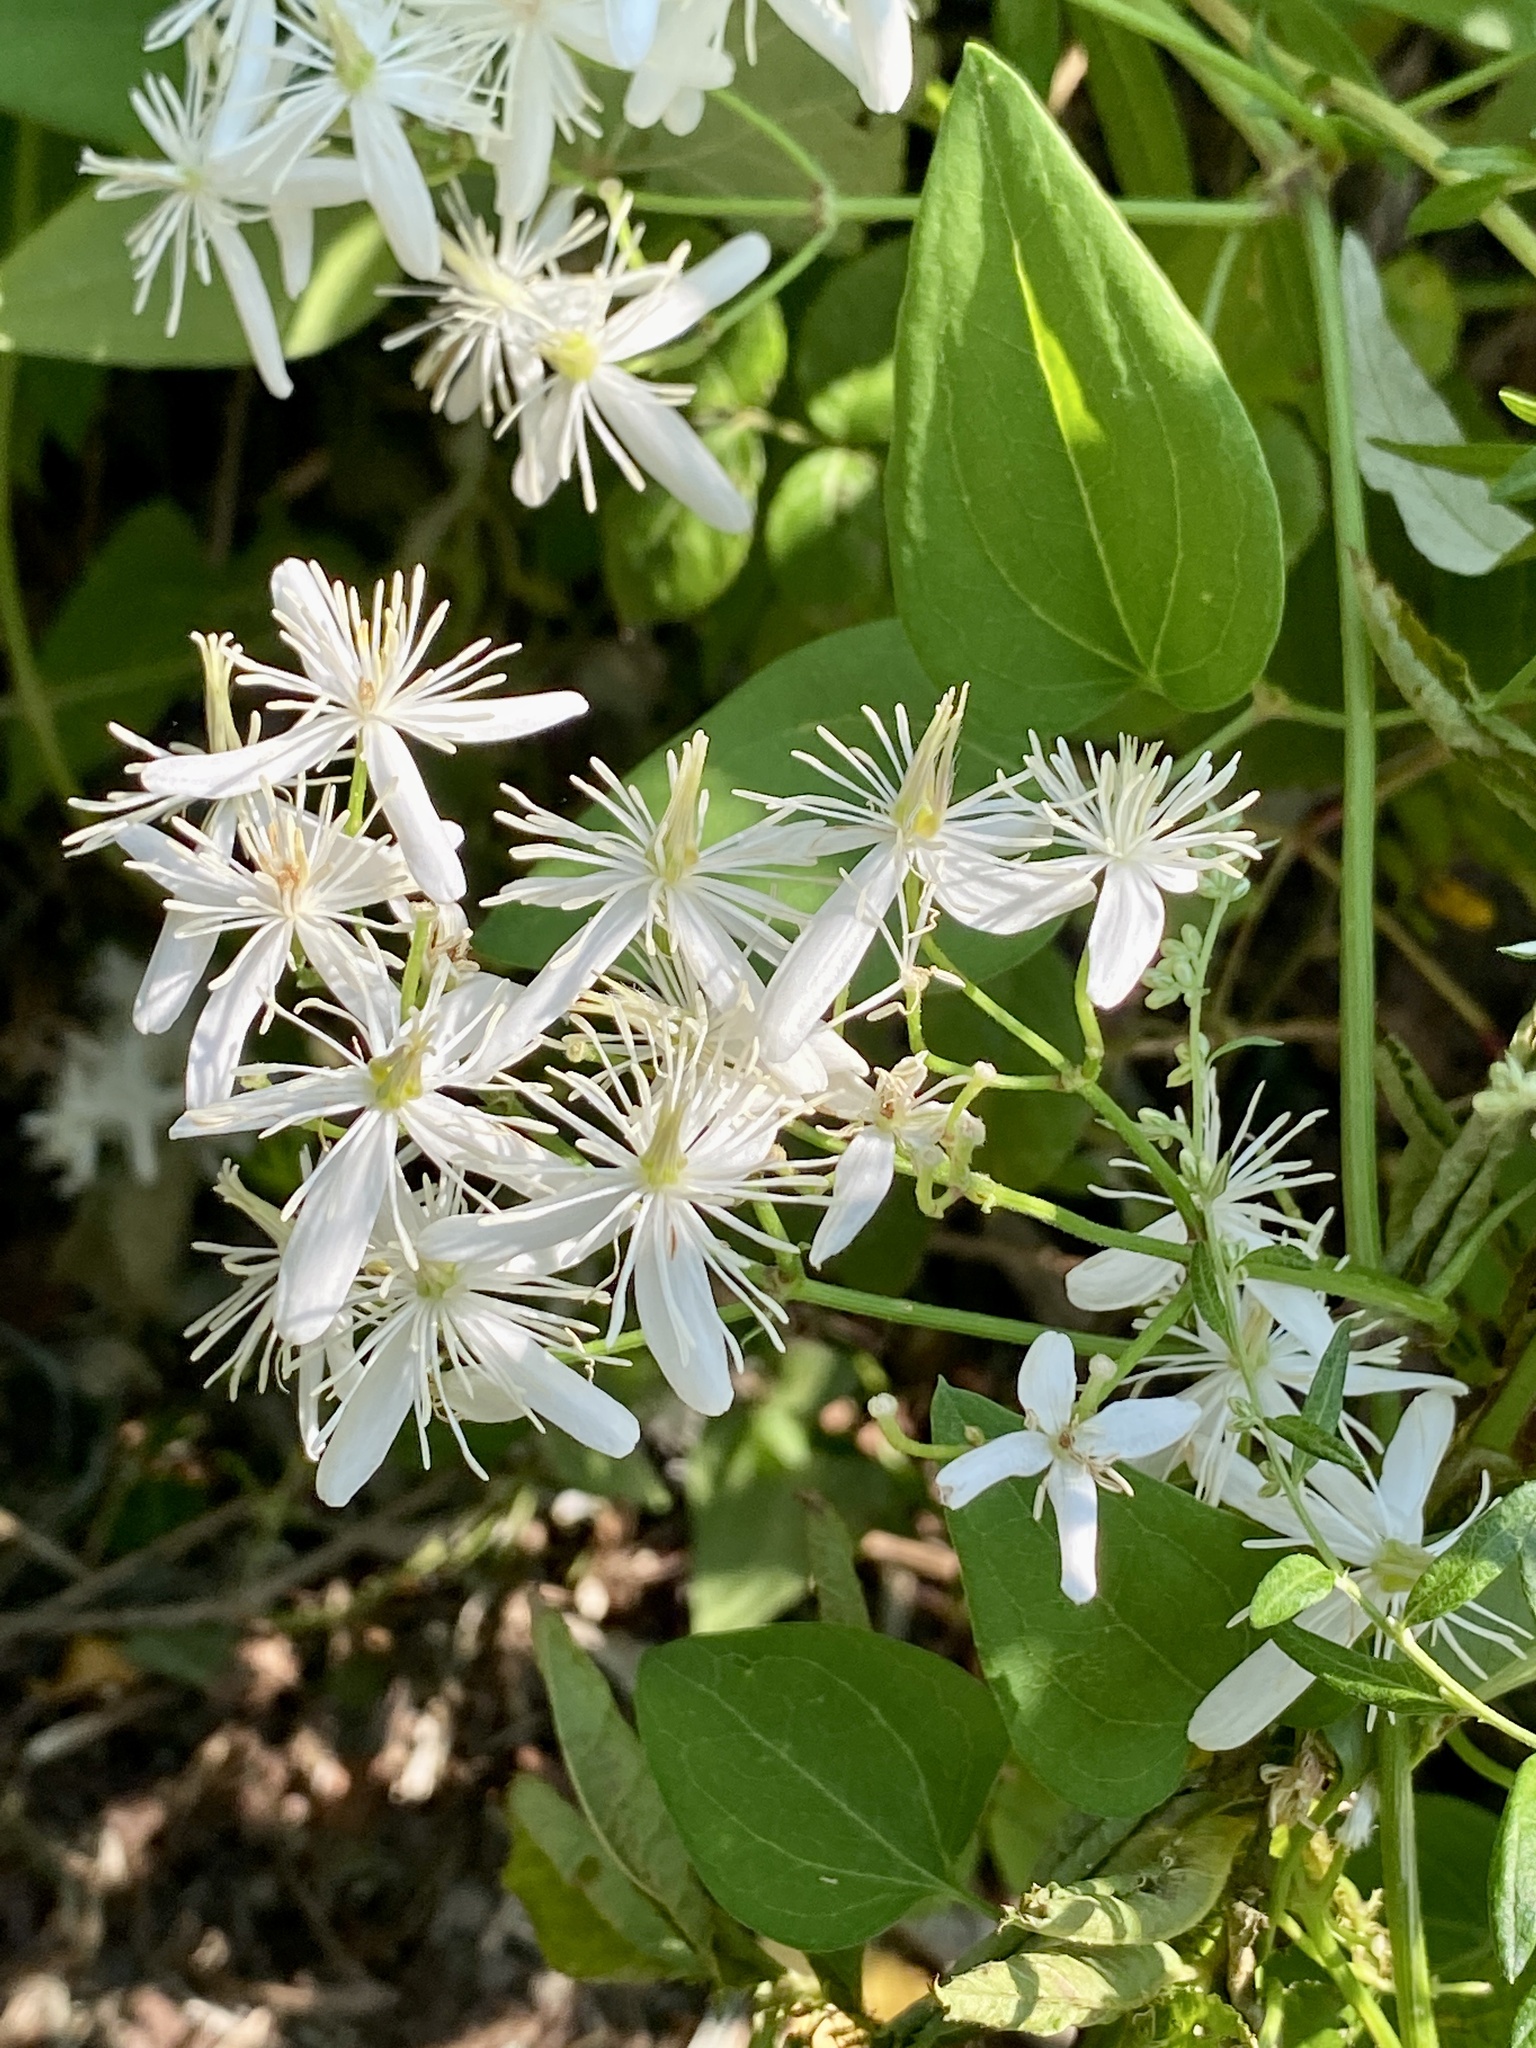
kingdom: Plantae
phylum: Tracheophyta
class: Magnoliopsida
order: Ranunculales
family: Ranunculaceae
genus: Clematis
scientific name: Clematis terniflora
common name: Sweet autumn clematis
